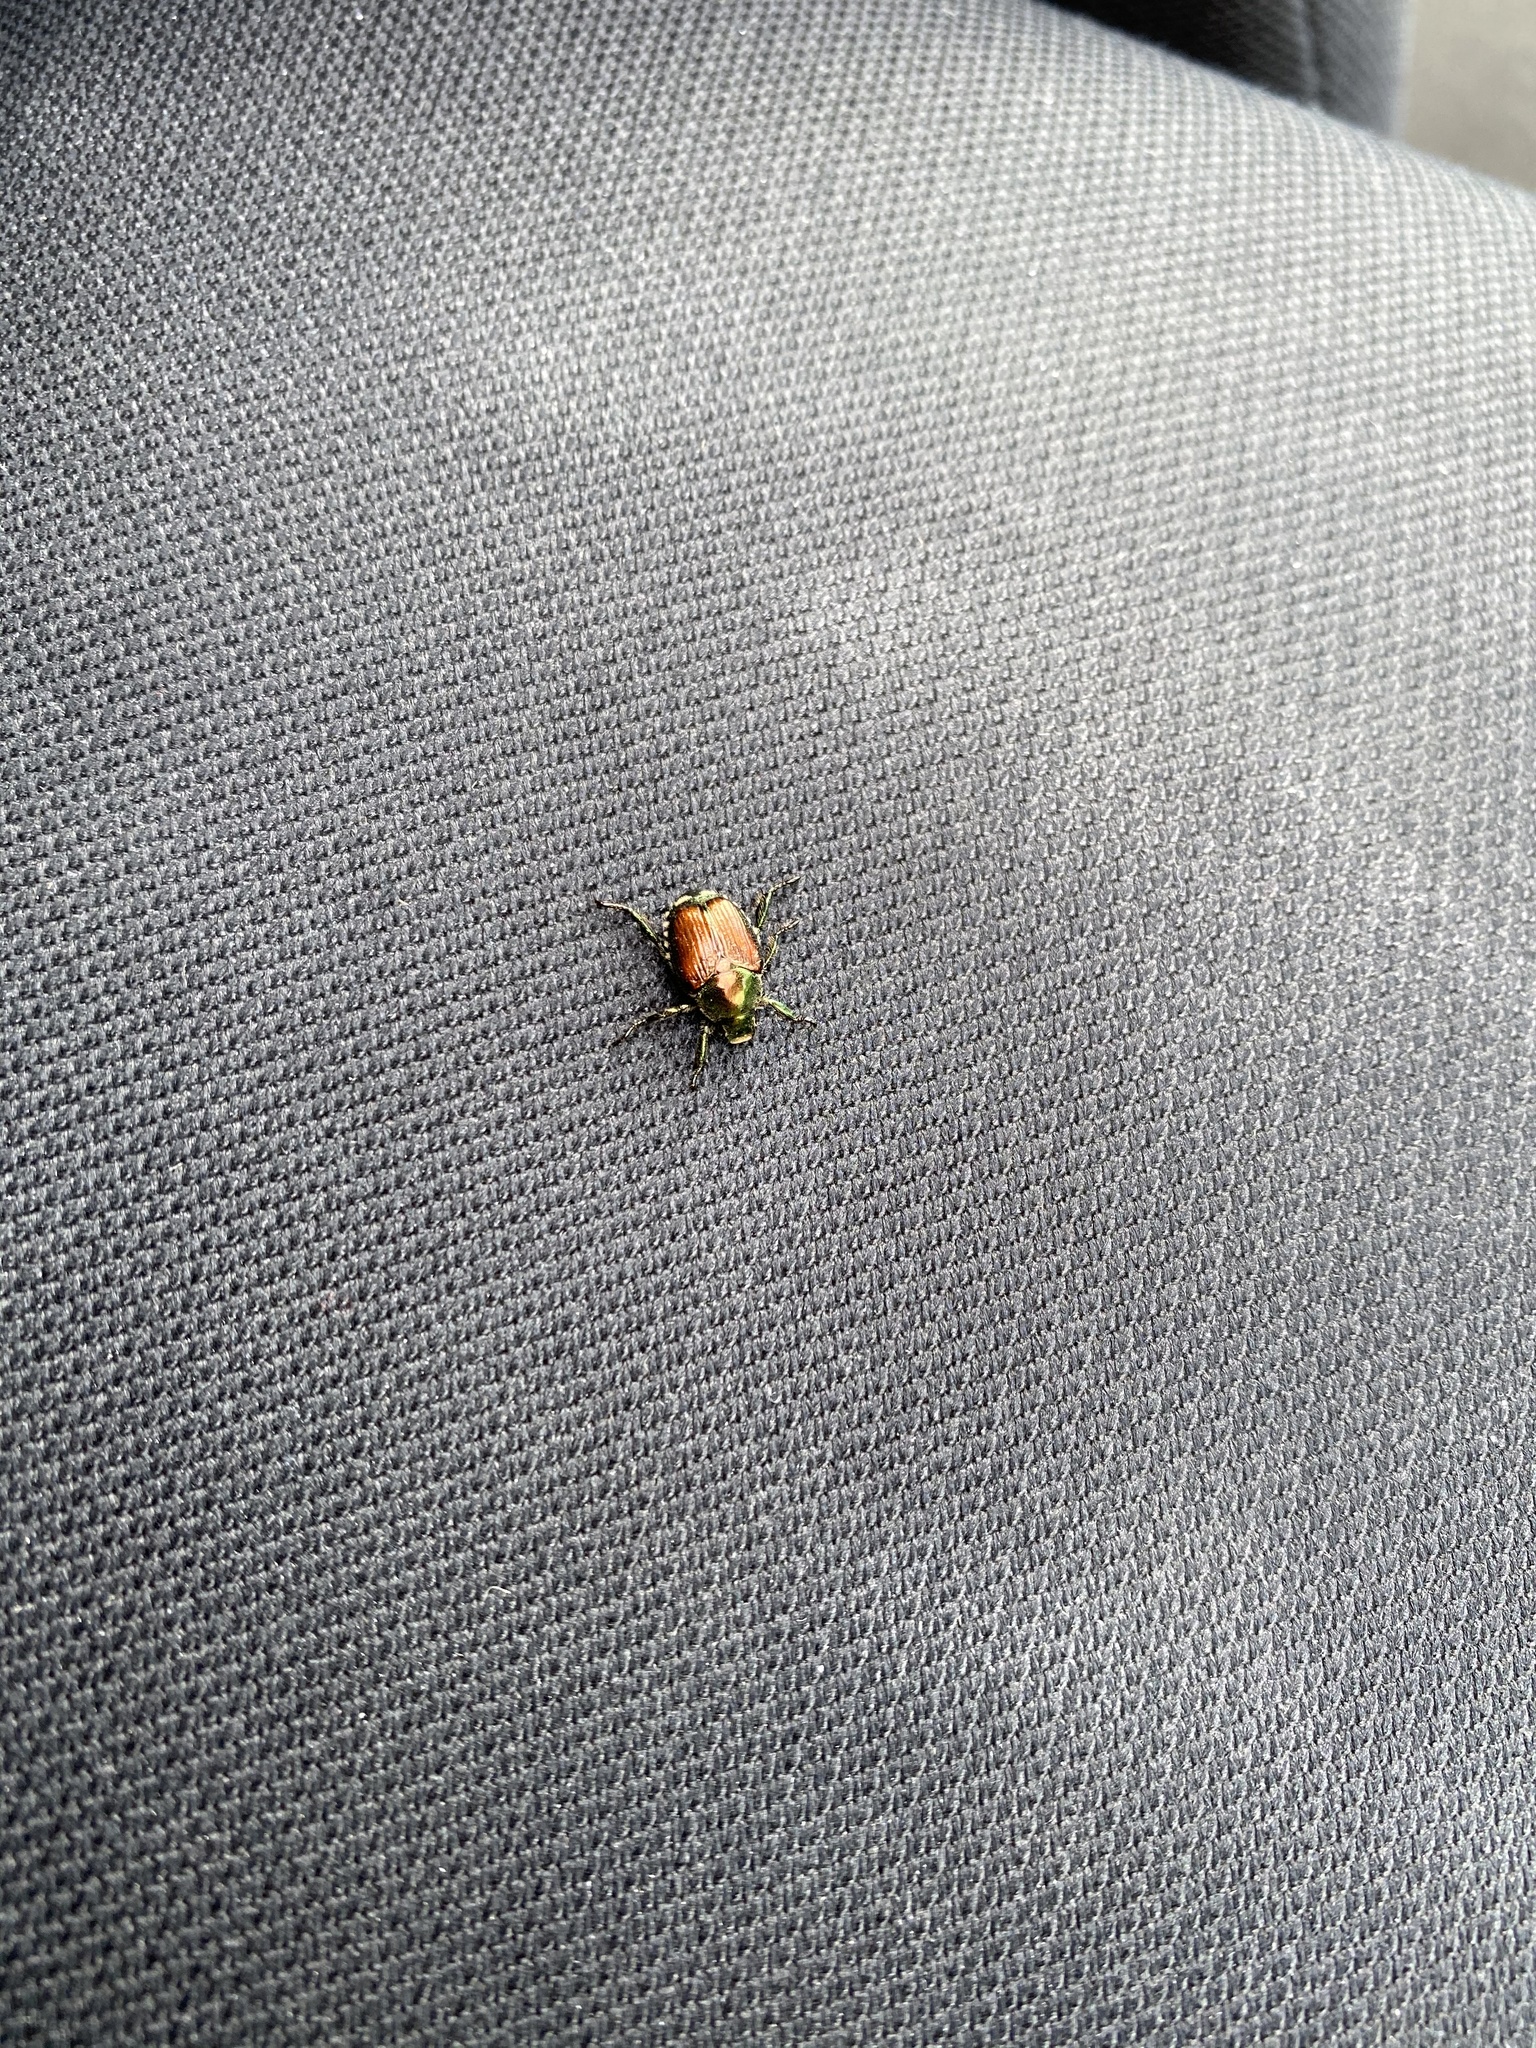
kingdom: Animalia
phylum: Arthropoda
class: Insecta
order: Coleoptera
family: Scarabaeidae
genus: Popillia
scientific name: Popillia japonica
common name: Japanese beetle
